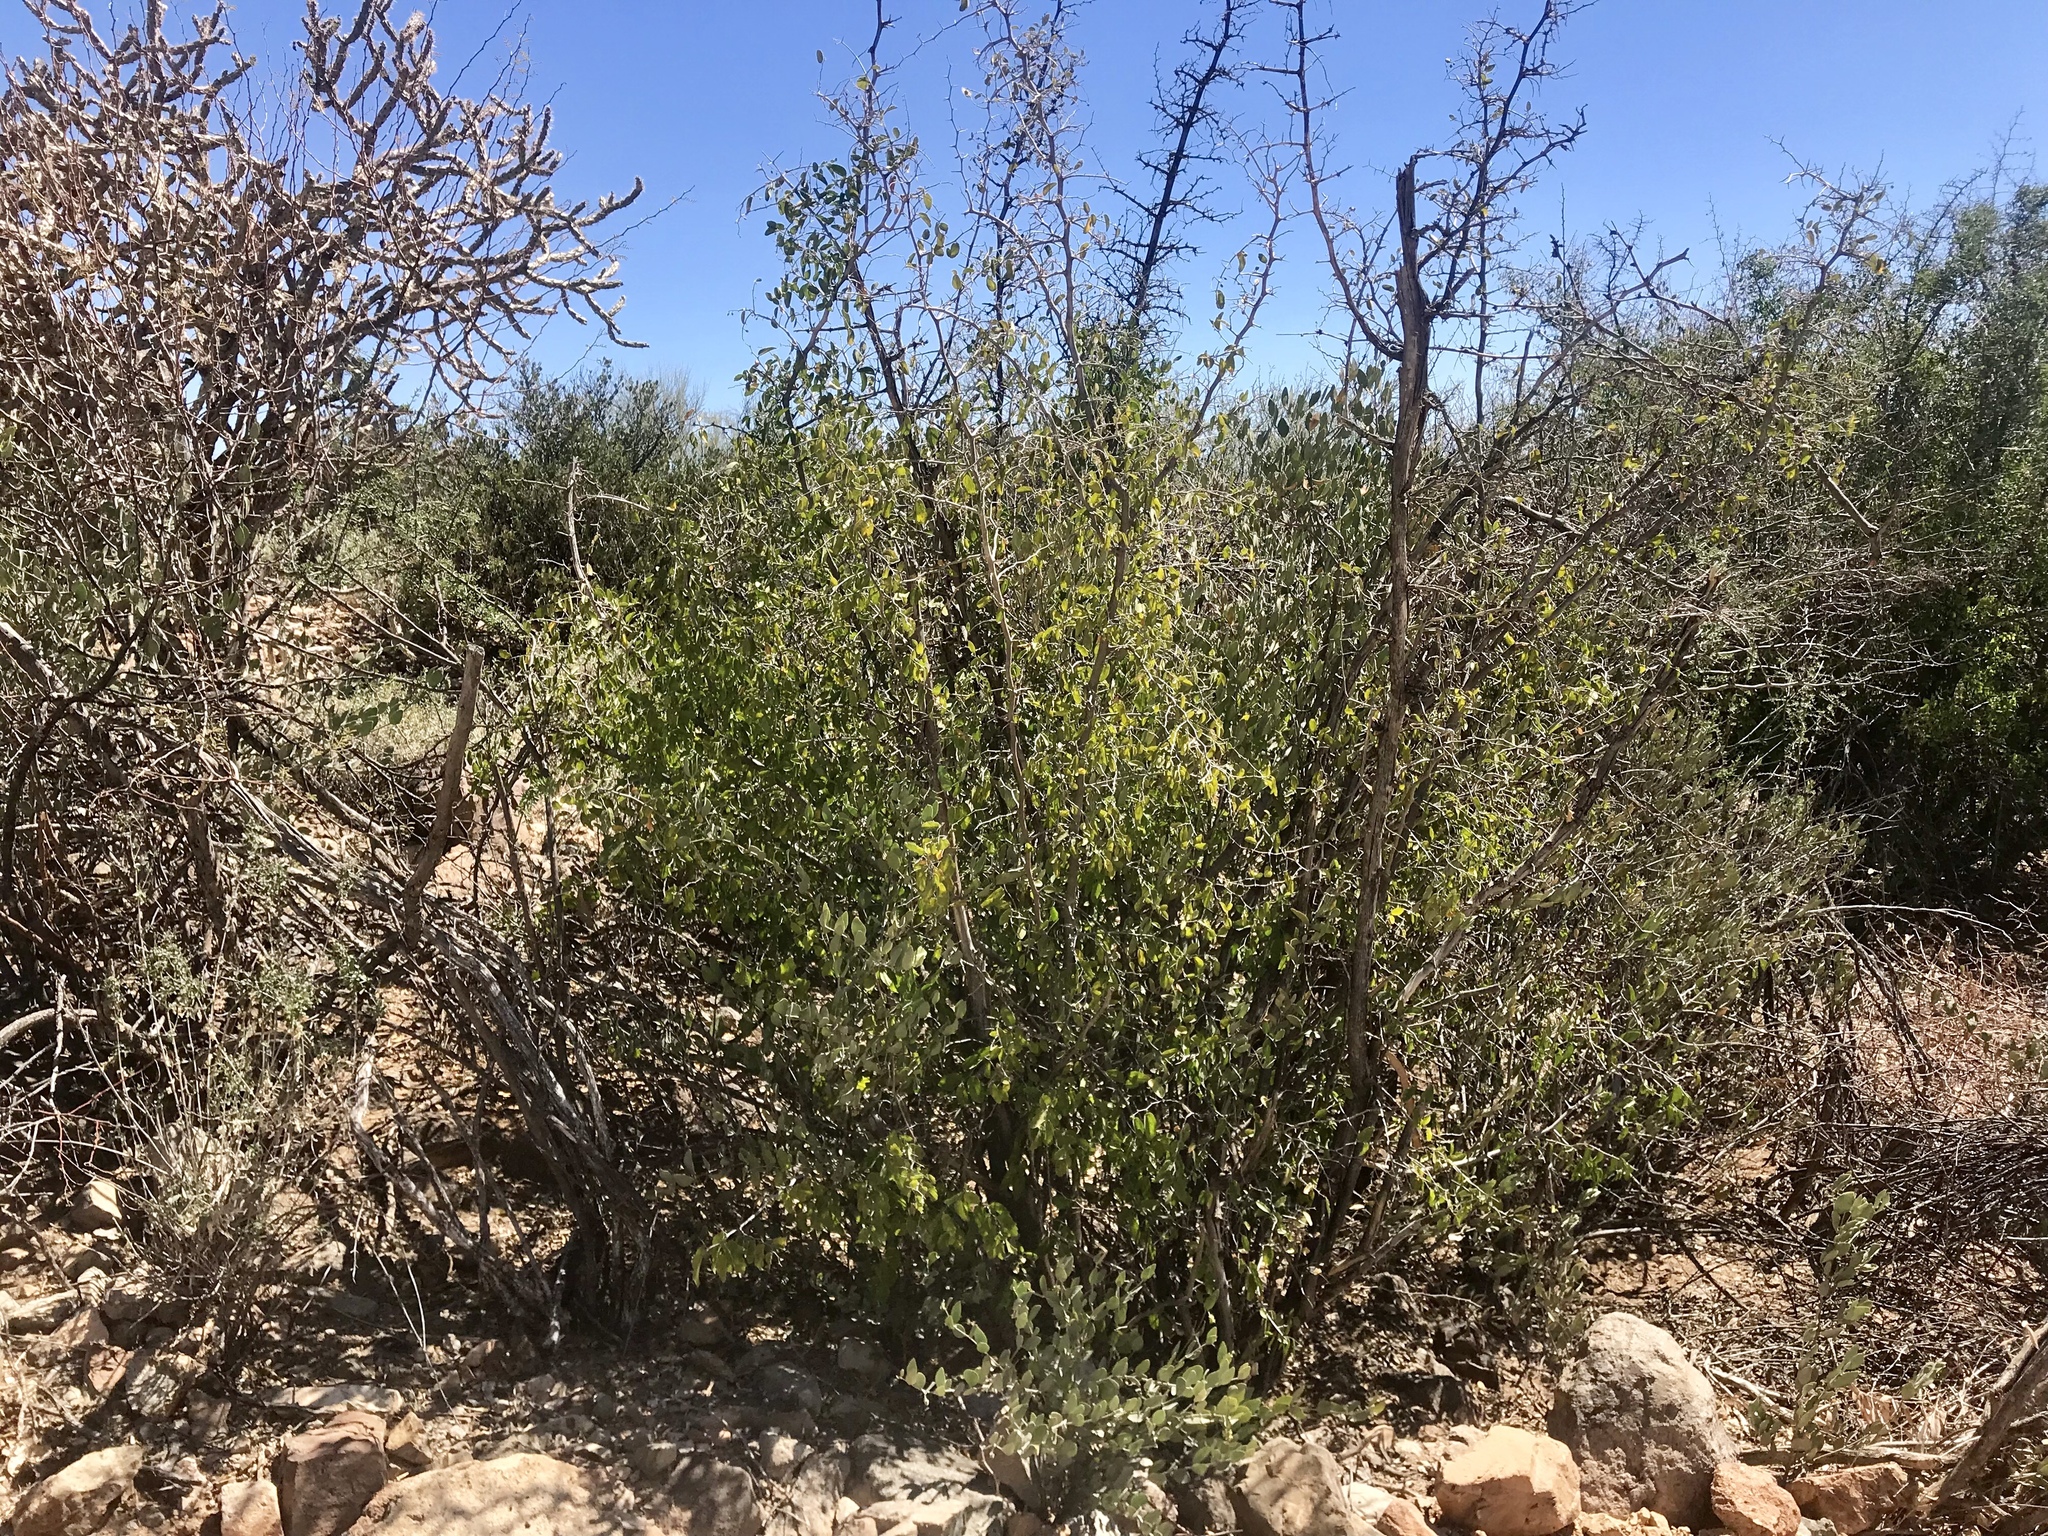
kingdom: Plantae
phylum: Tracheophyta
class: Magnoliopsida
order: Rosales
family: Cannabaceae
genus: Celtis
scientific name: Celtis pallida
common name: Desert hackberry
